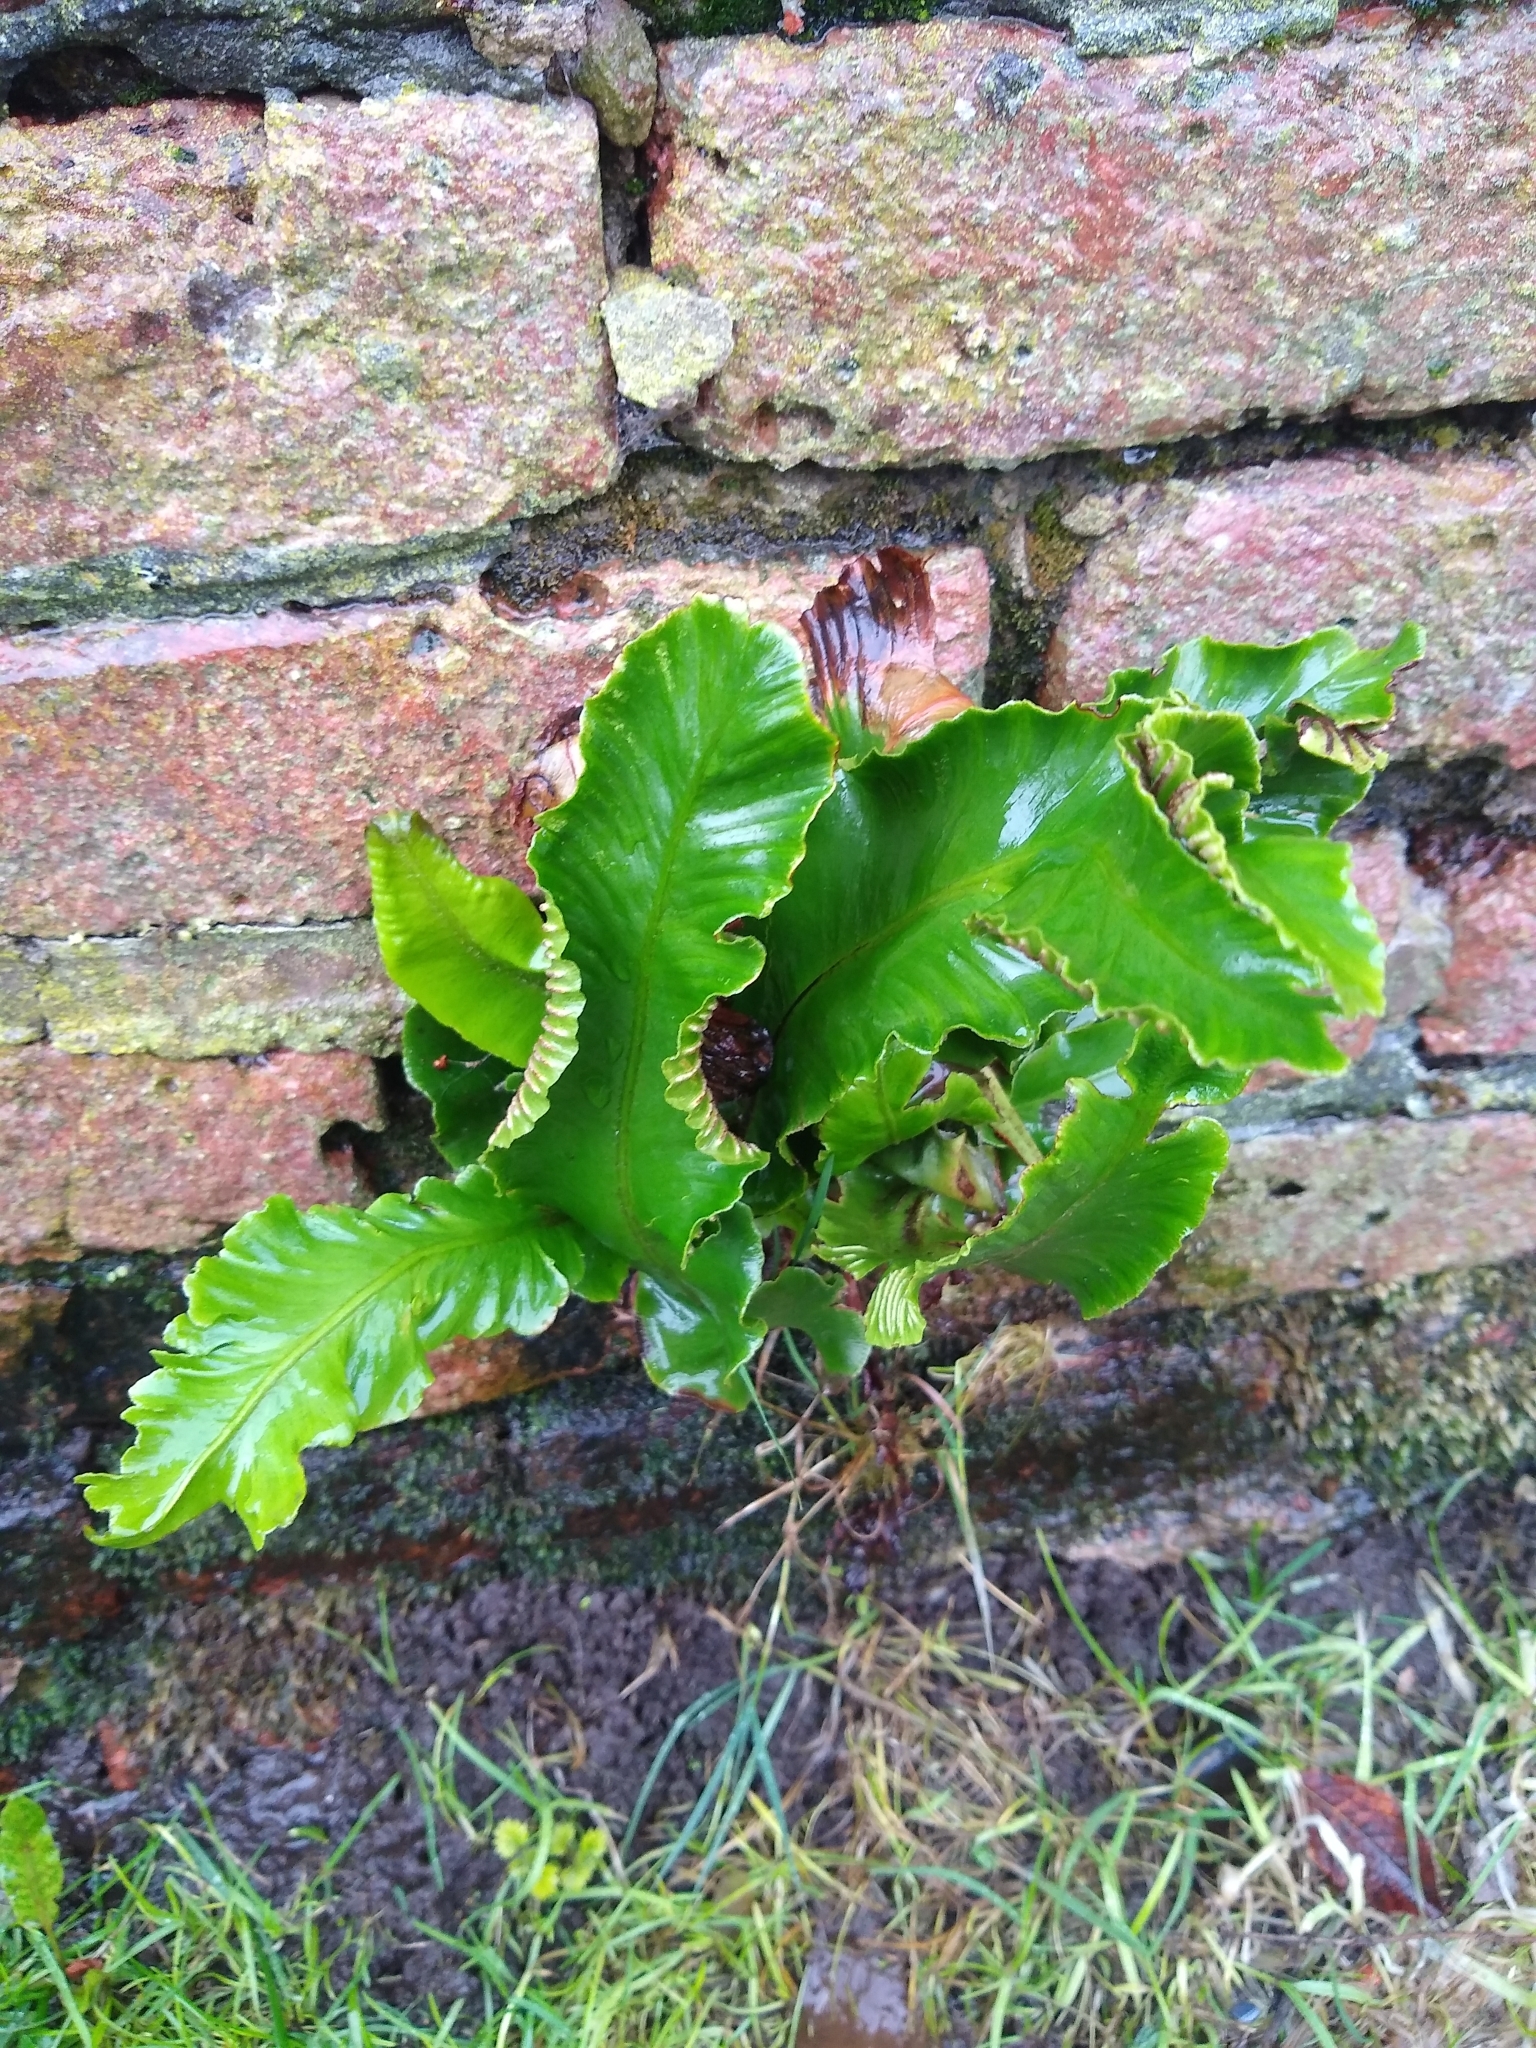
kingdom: Plantae
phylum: Tracheophyta
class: Polypodiopsida
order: Polypodiales
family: Aspleniaceae
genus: Asplenium
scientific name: Asplenium scolopendrium
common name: Hart's-tongue fern
